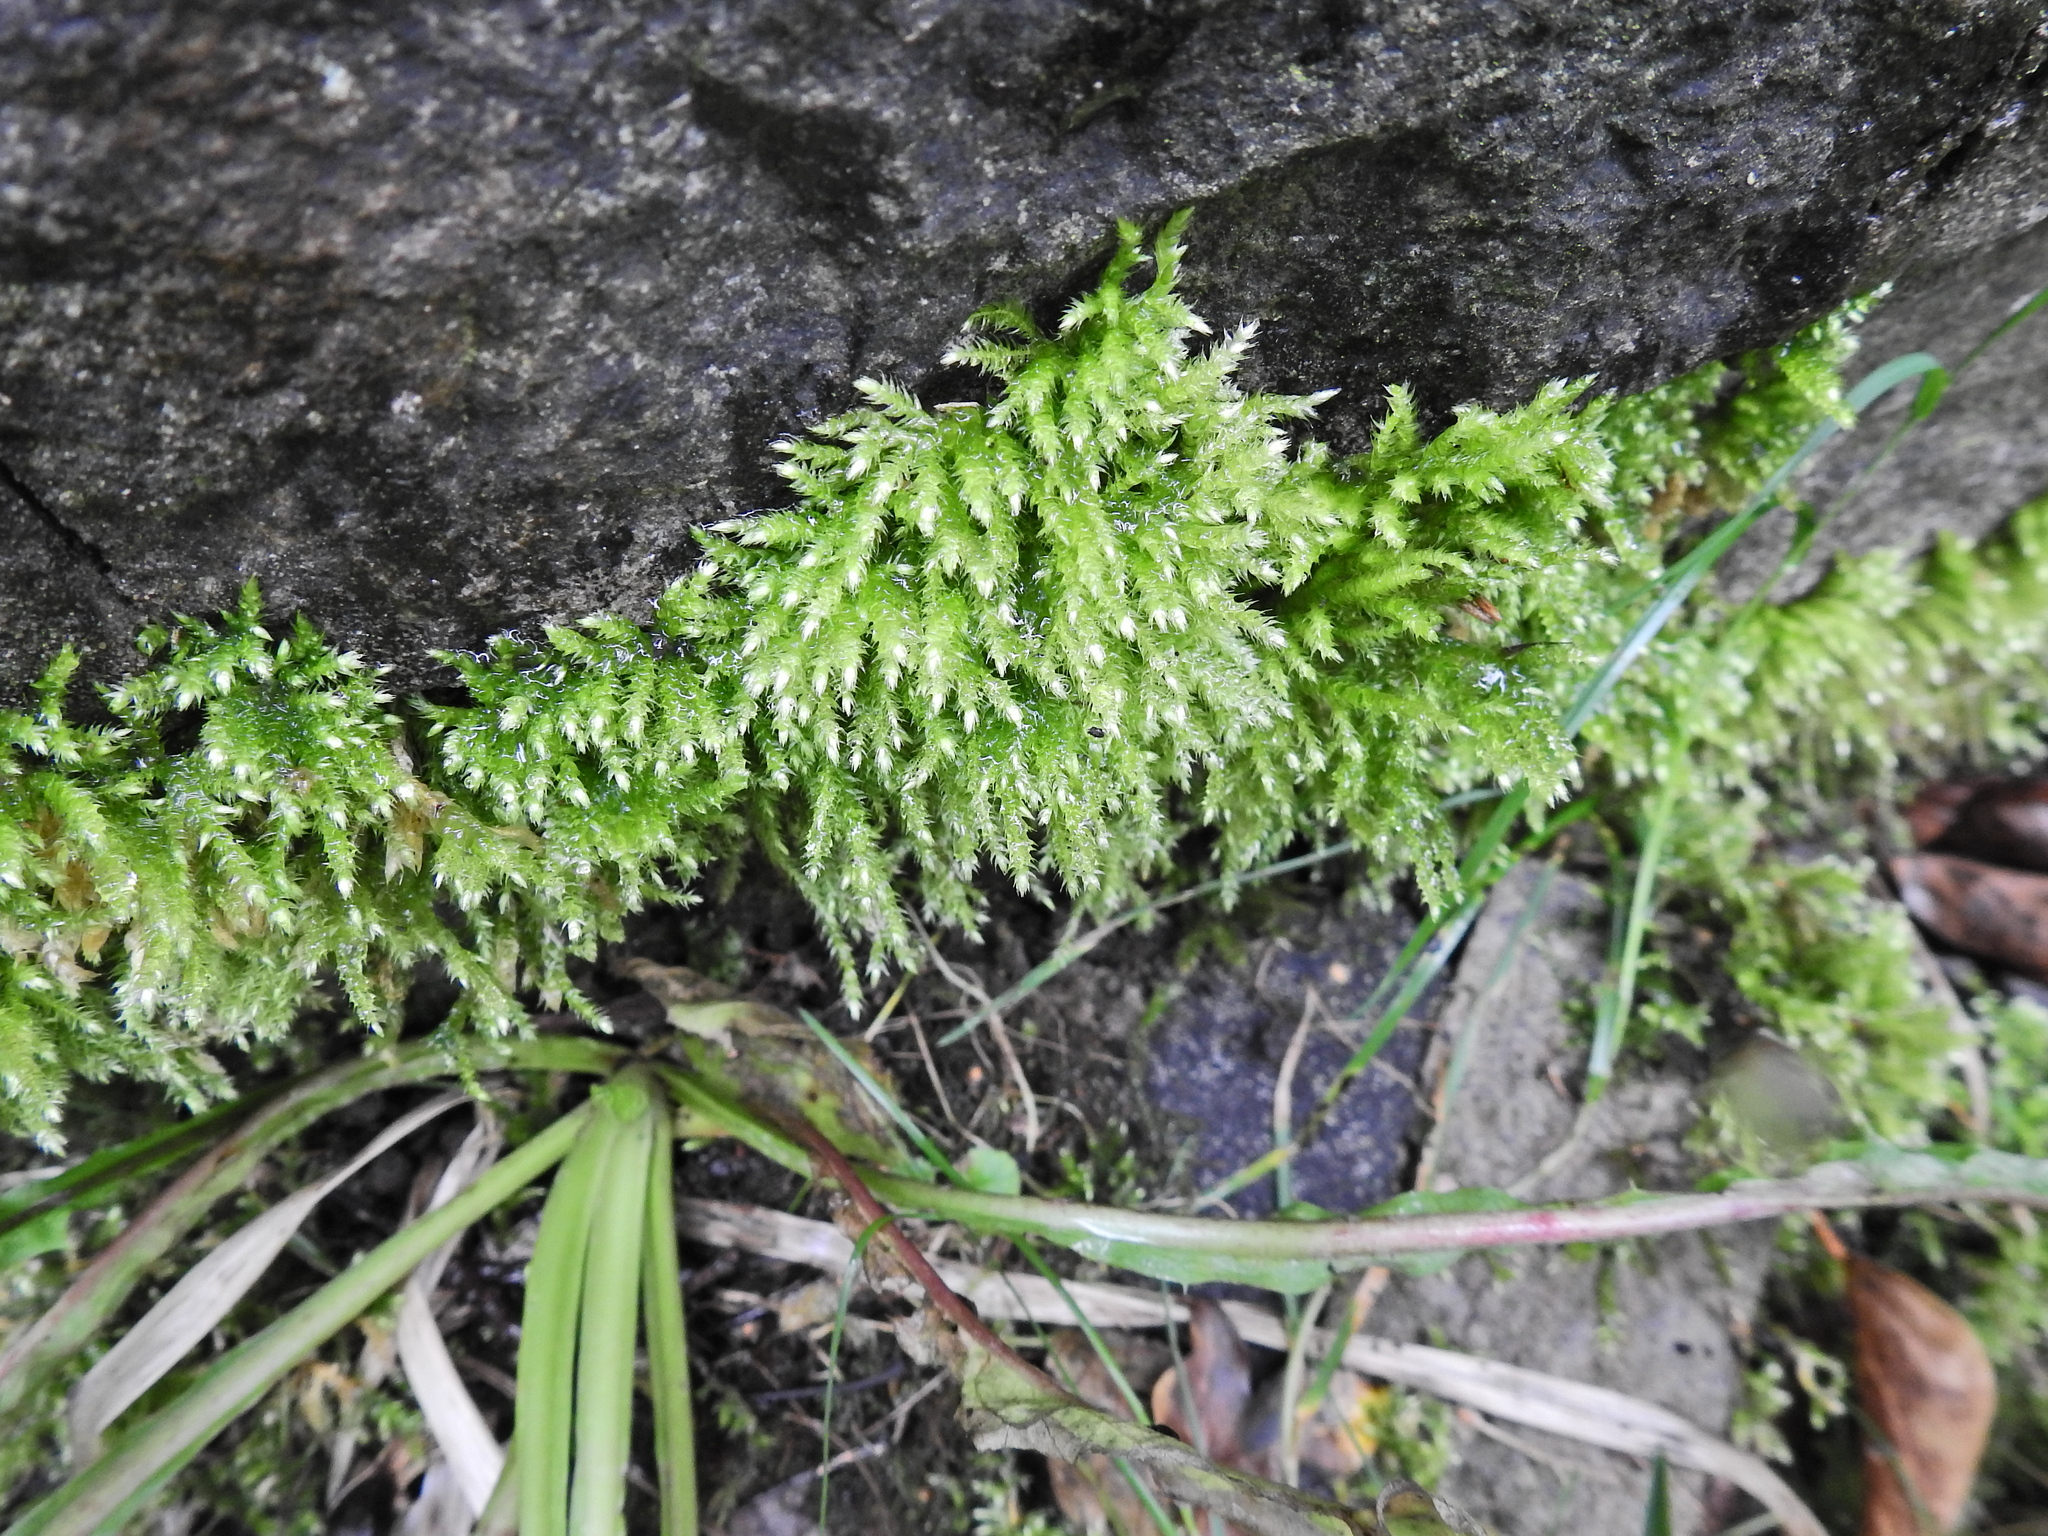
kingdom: Plantae
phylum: Bryophyta
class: Bryopsida
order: Hypnales
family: Brachytheciaceae
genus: Brachythecium
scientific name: Brachythecium rutabulum
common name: Rough-stalked feather-moss
